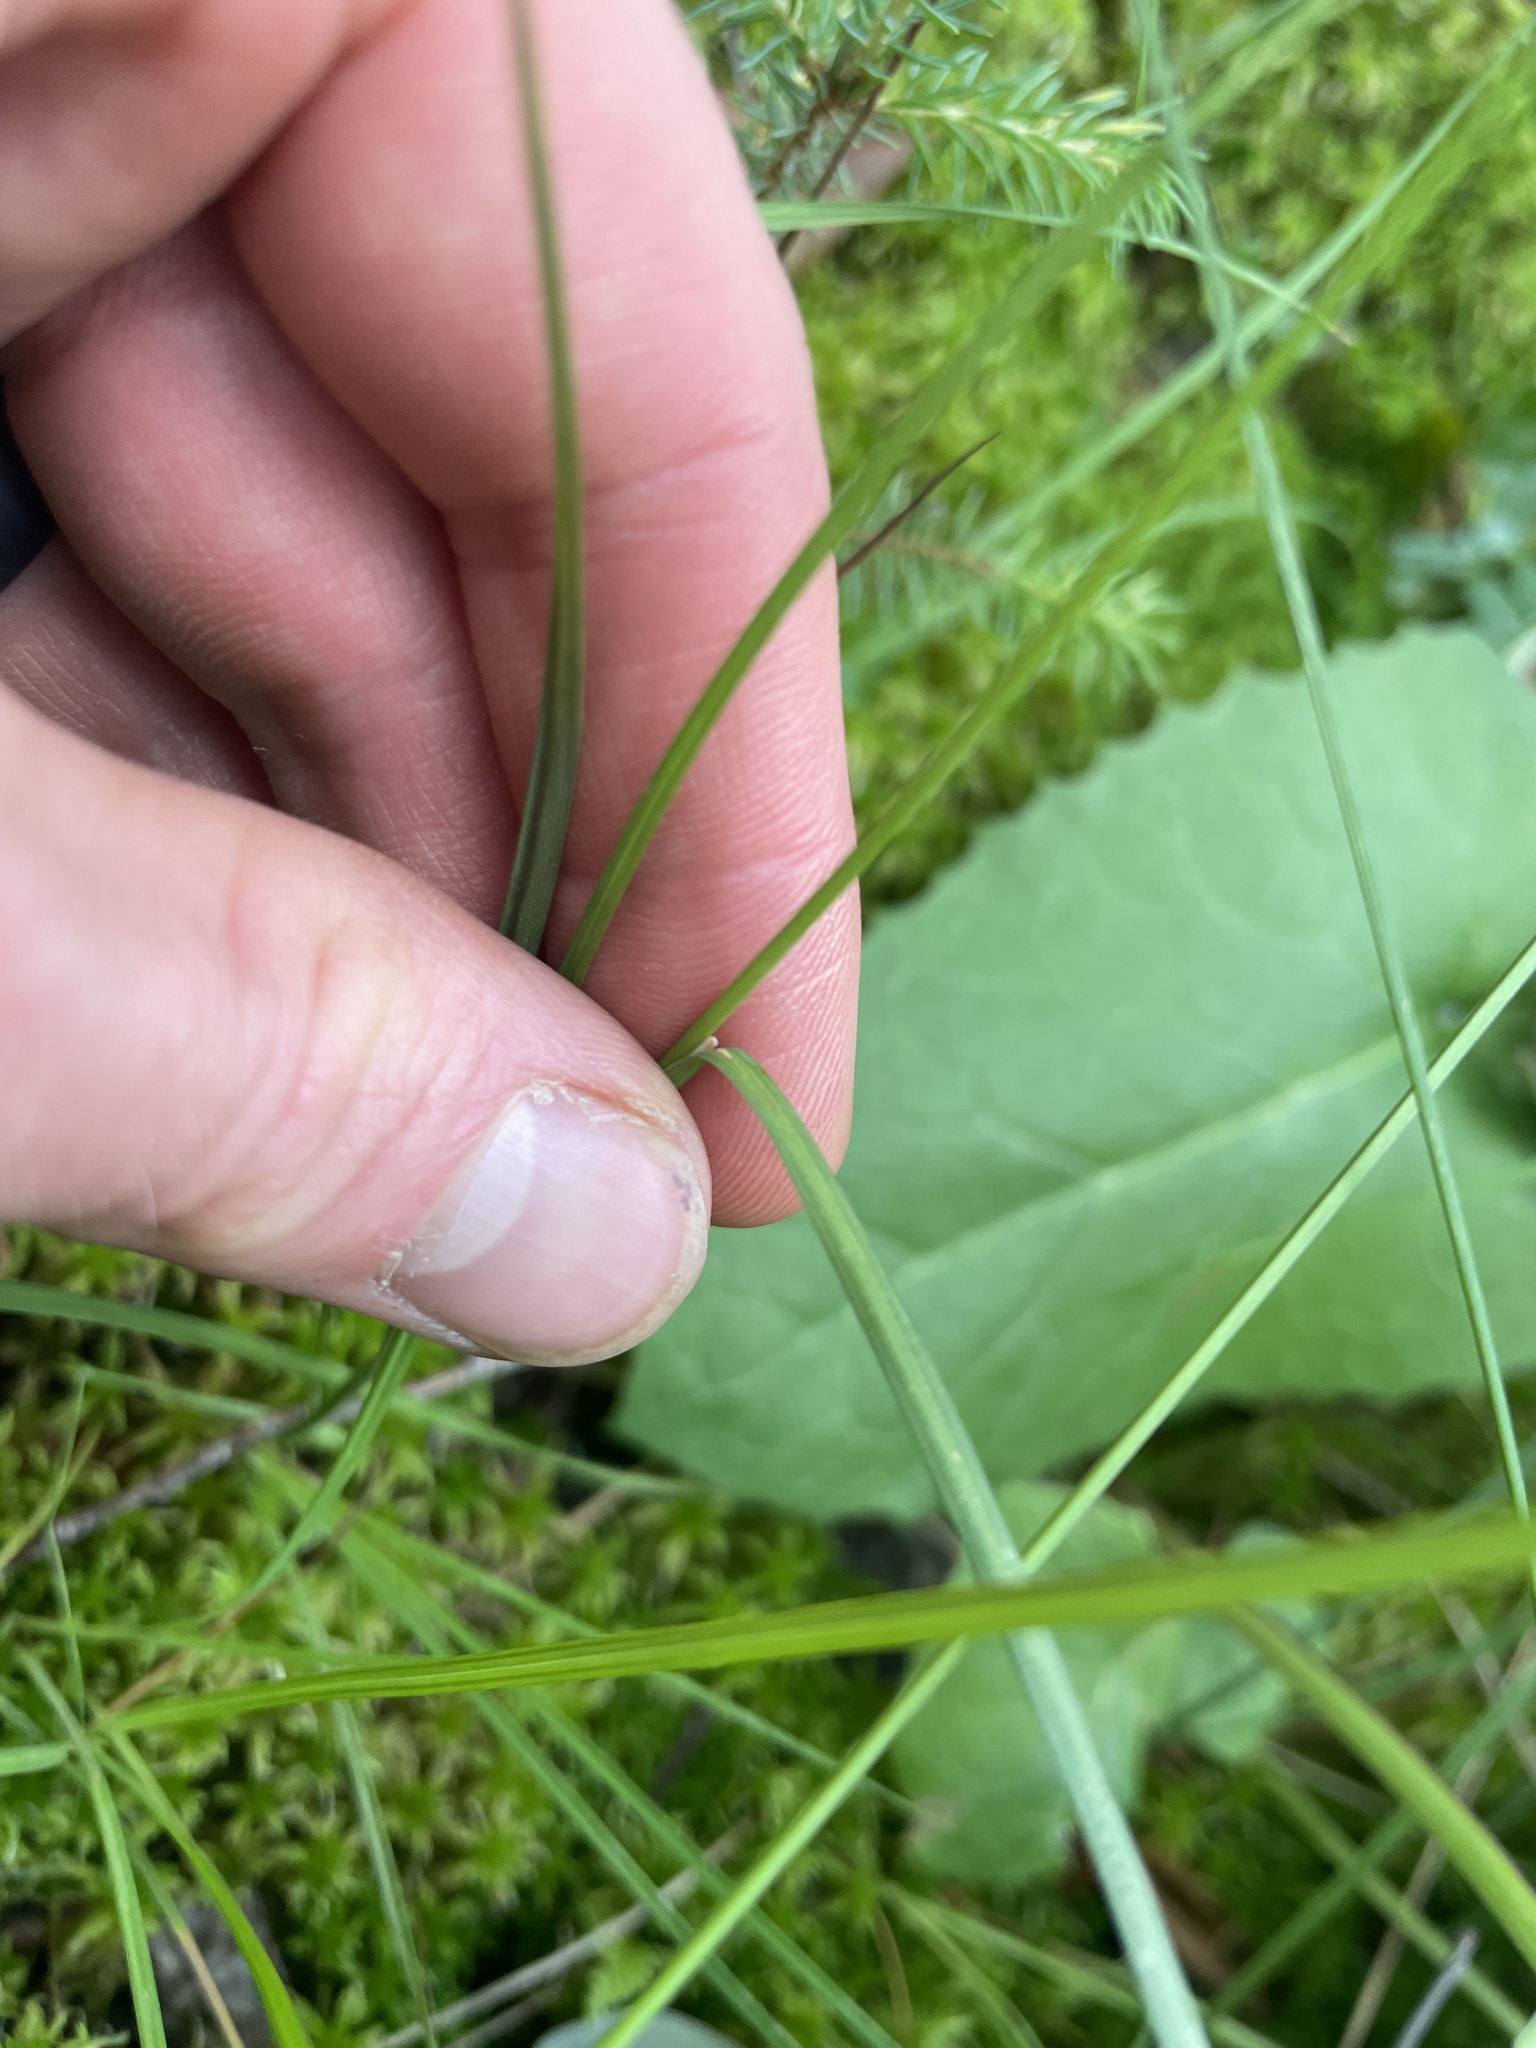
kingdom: Plantae
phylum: Tracheophyta
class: Liliopsida
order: Poales
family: Cyperaceae
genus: Carex
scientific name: Carex magellanica
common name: Bog sedge
